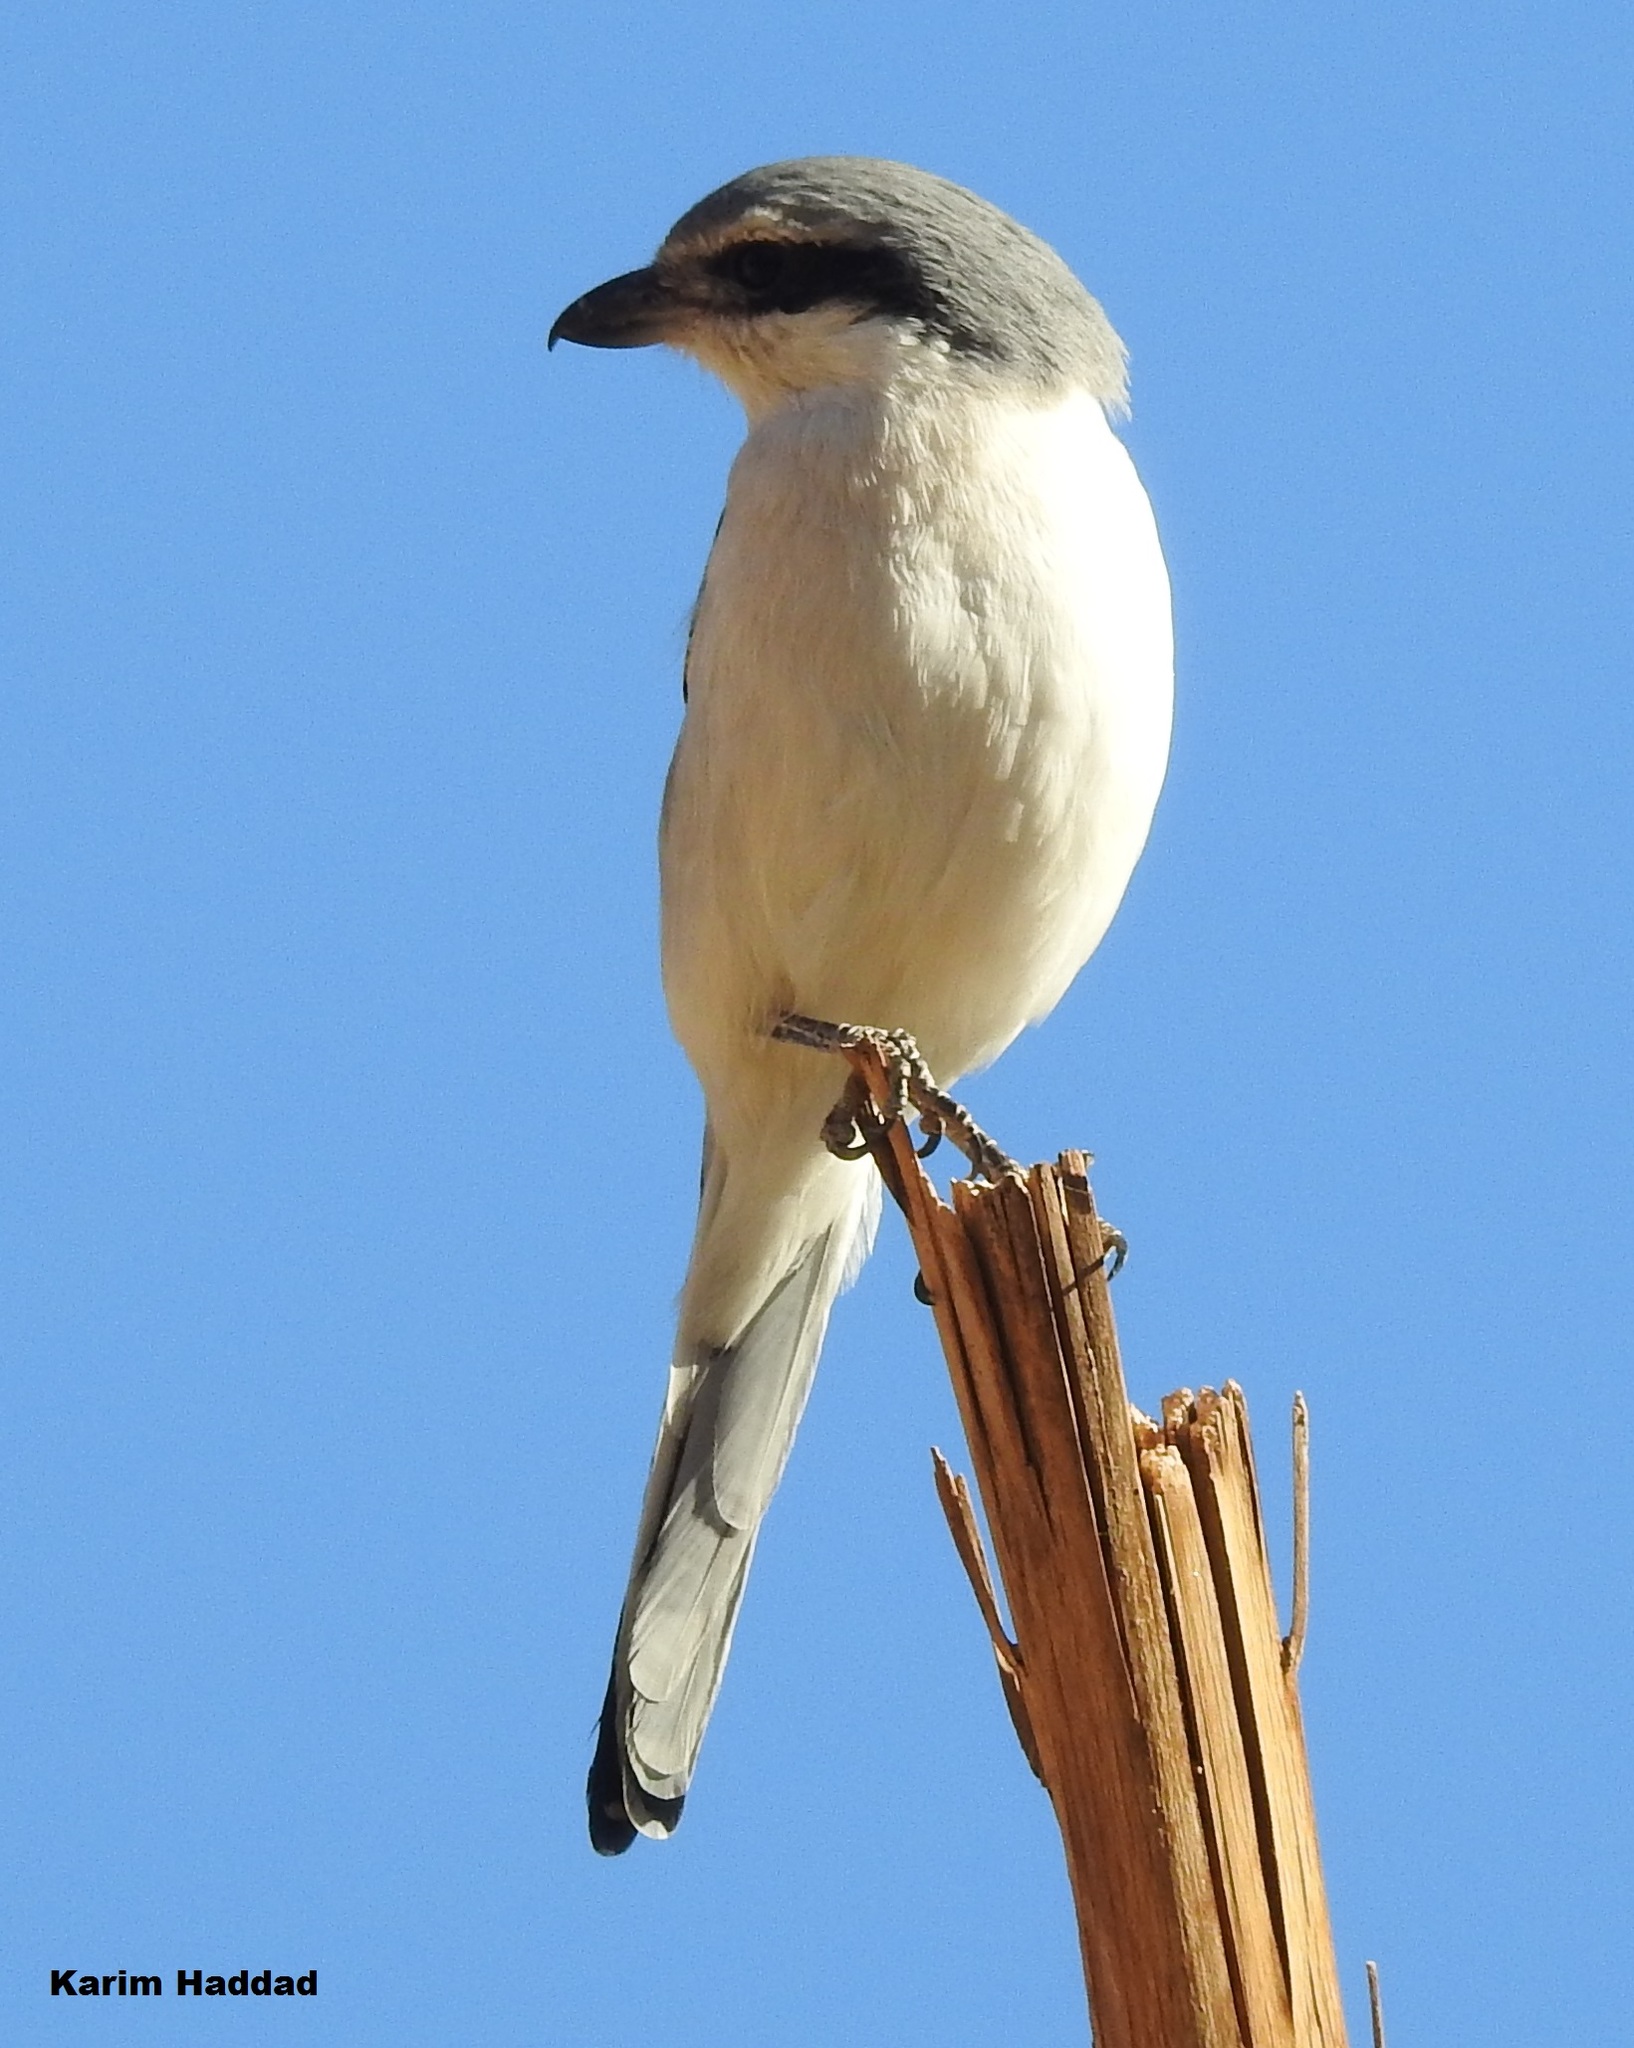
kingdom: Animalia
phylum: Chordata
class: Aves
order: Passeriformes
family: Laniidae
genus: Lanius
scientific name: Lanius excubitor
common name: Great grey shrike
